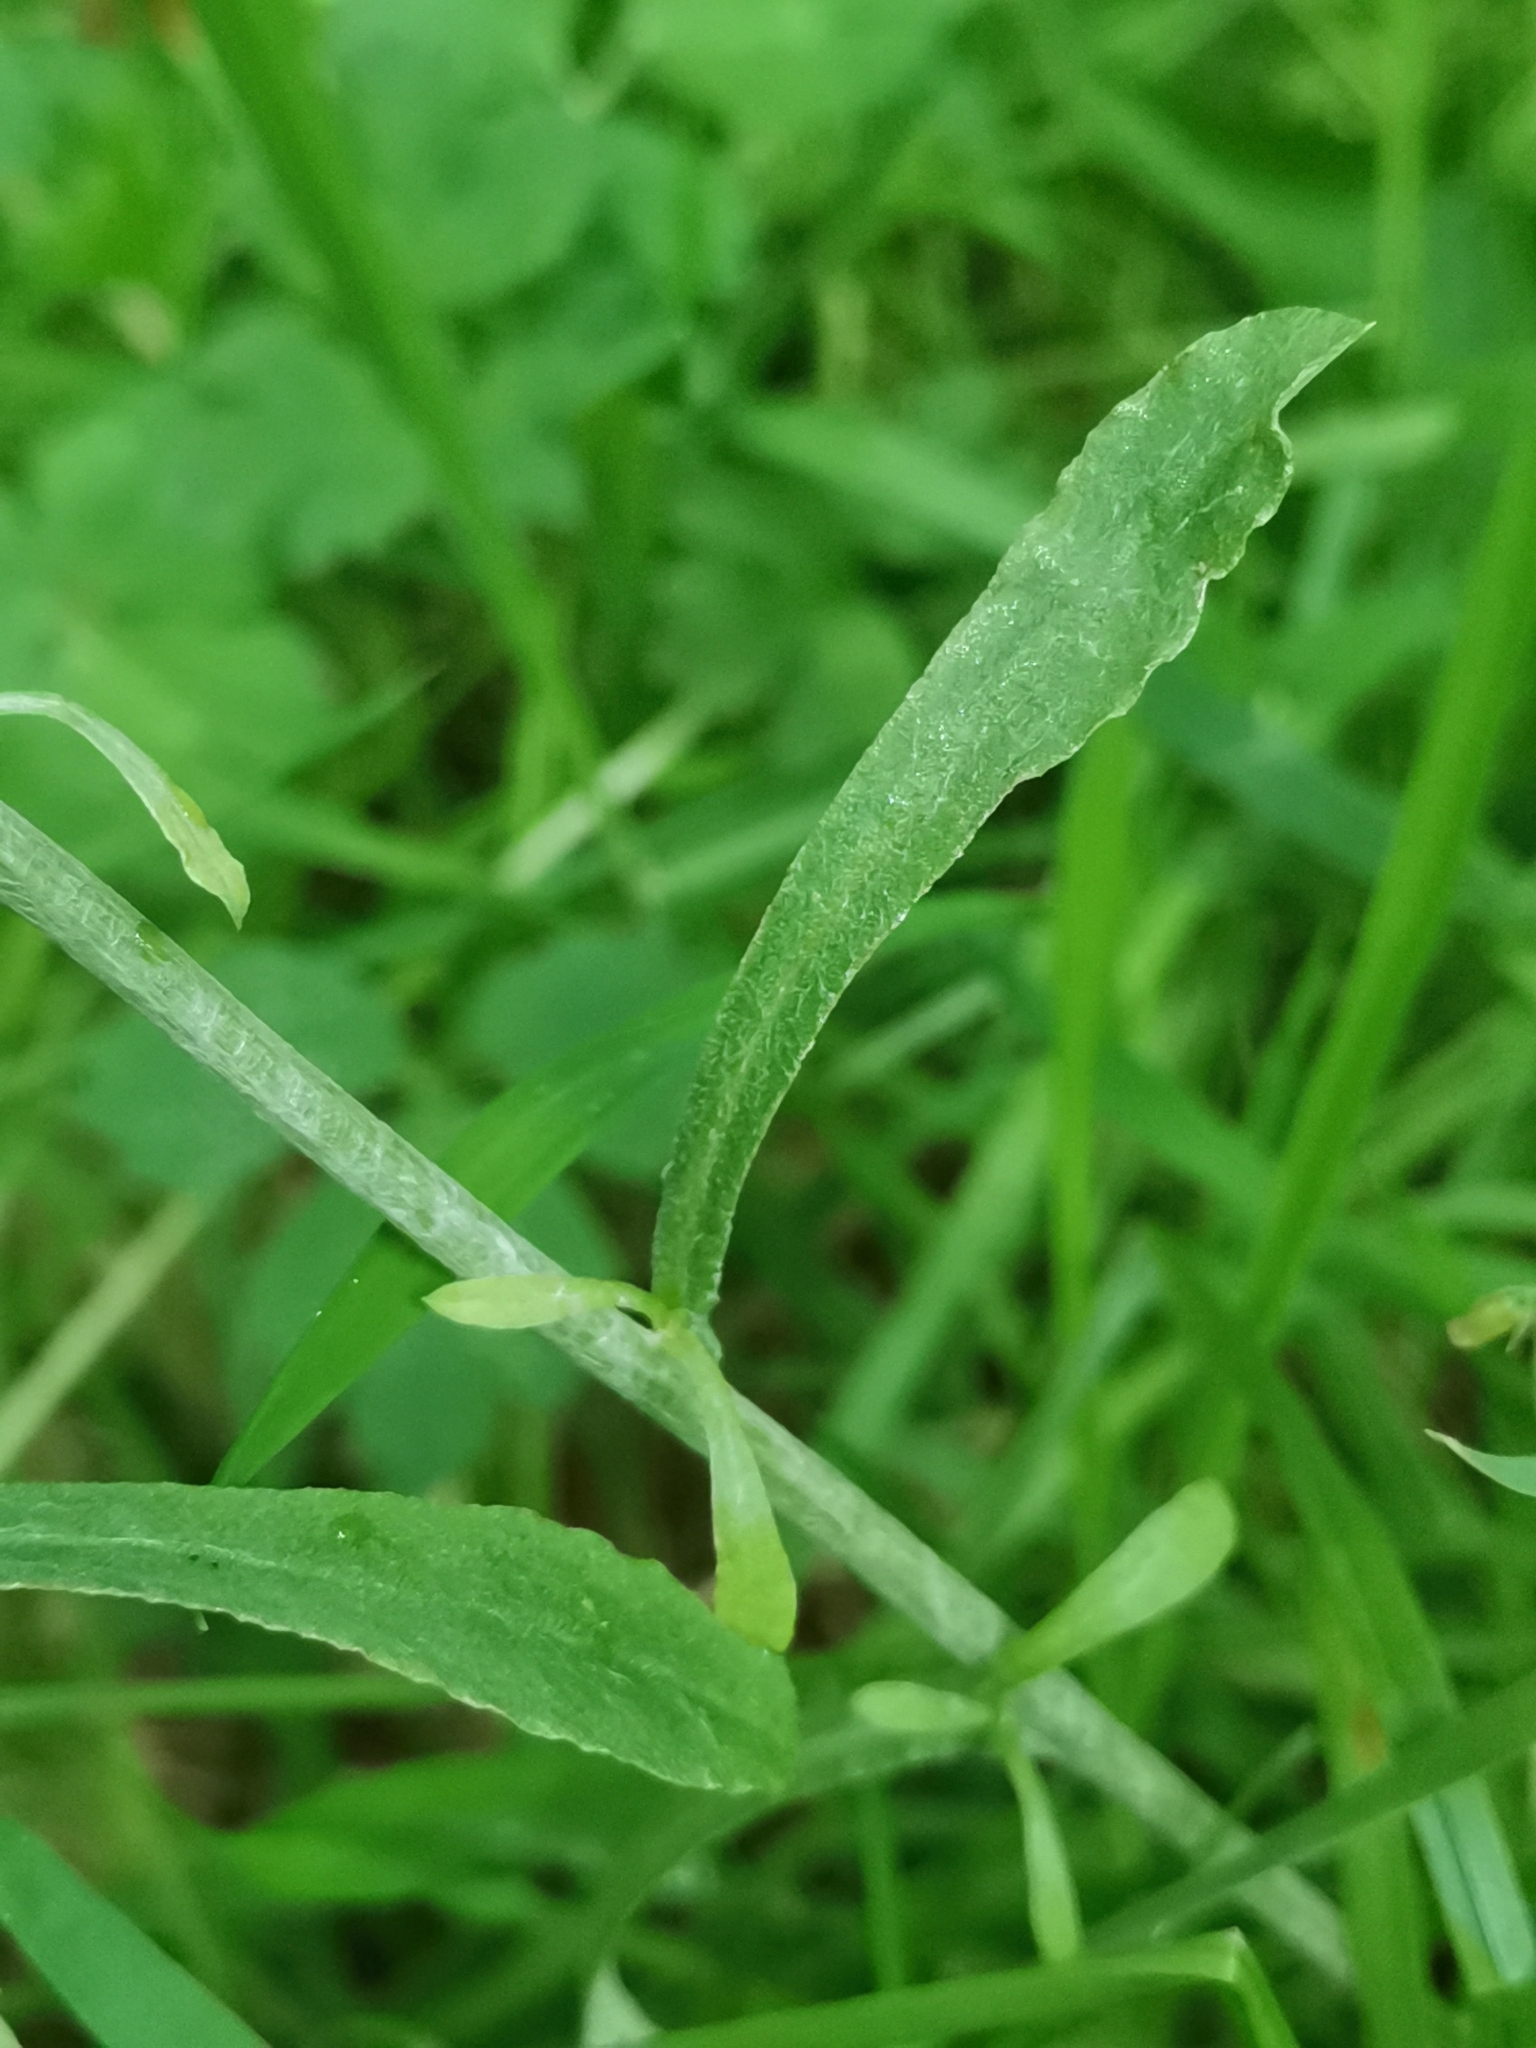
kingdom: Plantae
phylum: Tracheophyta
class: Magnoliopsida
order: Asterales
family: Asteraceae
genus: Gamochaeta
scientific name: Gamochaeta purpurea
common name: Purple cudweed
